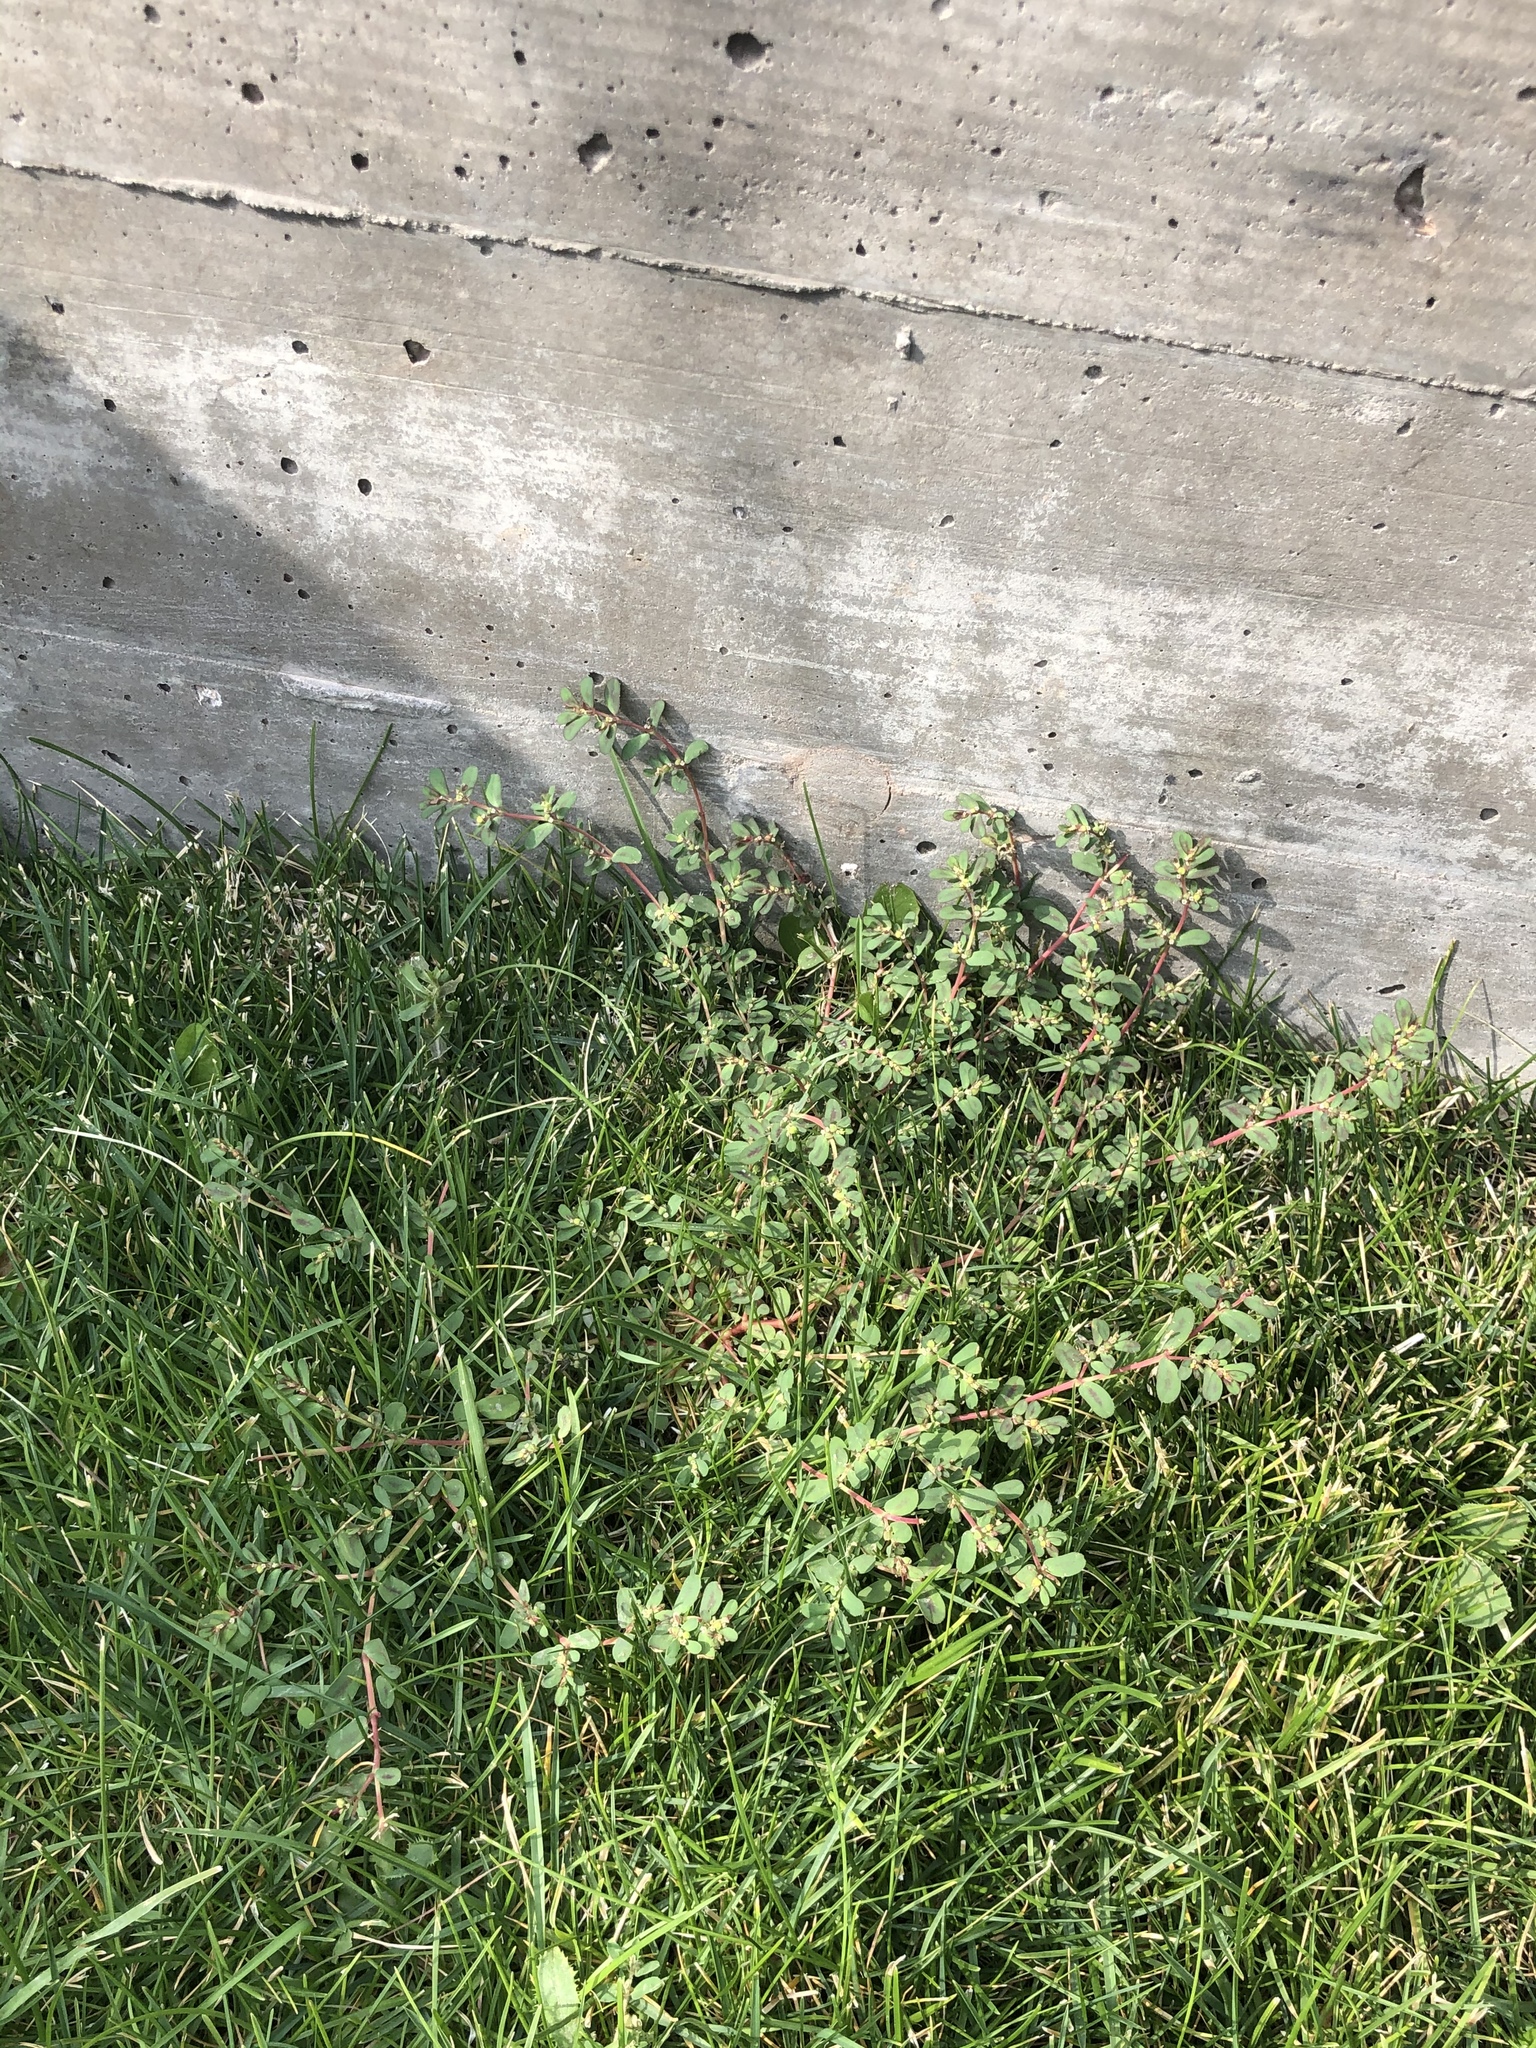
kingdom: Plantae
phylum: Tracheophyta
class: Magnoliopsida
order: Malpighiales
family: Euphorbiaceae
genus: Euphorbia
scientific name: Euphorbia serpillifolia
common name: Thyme-leaf spurge
